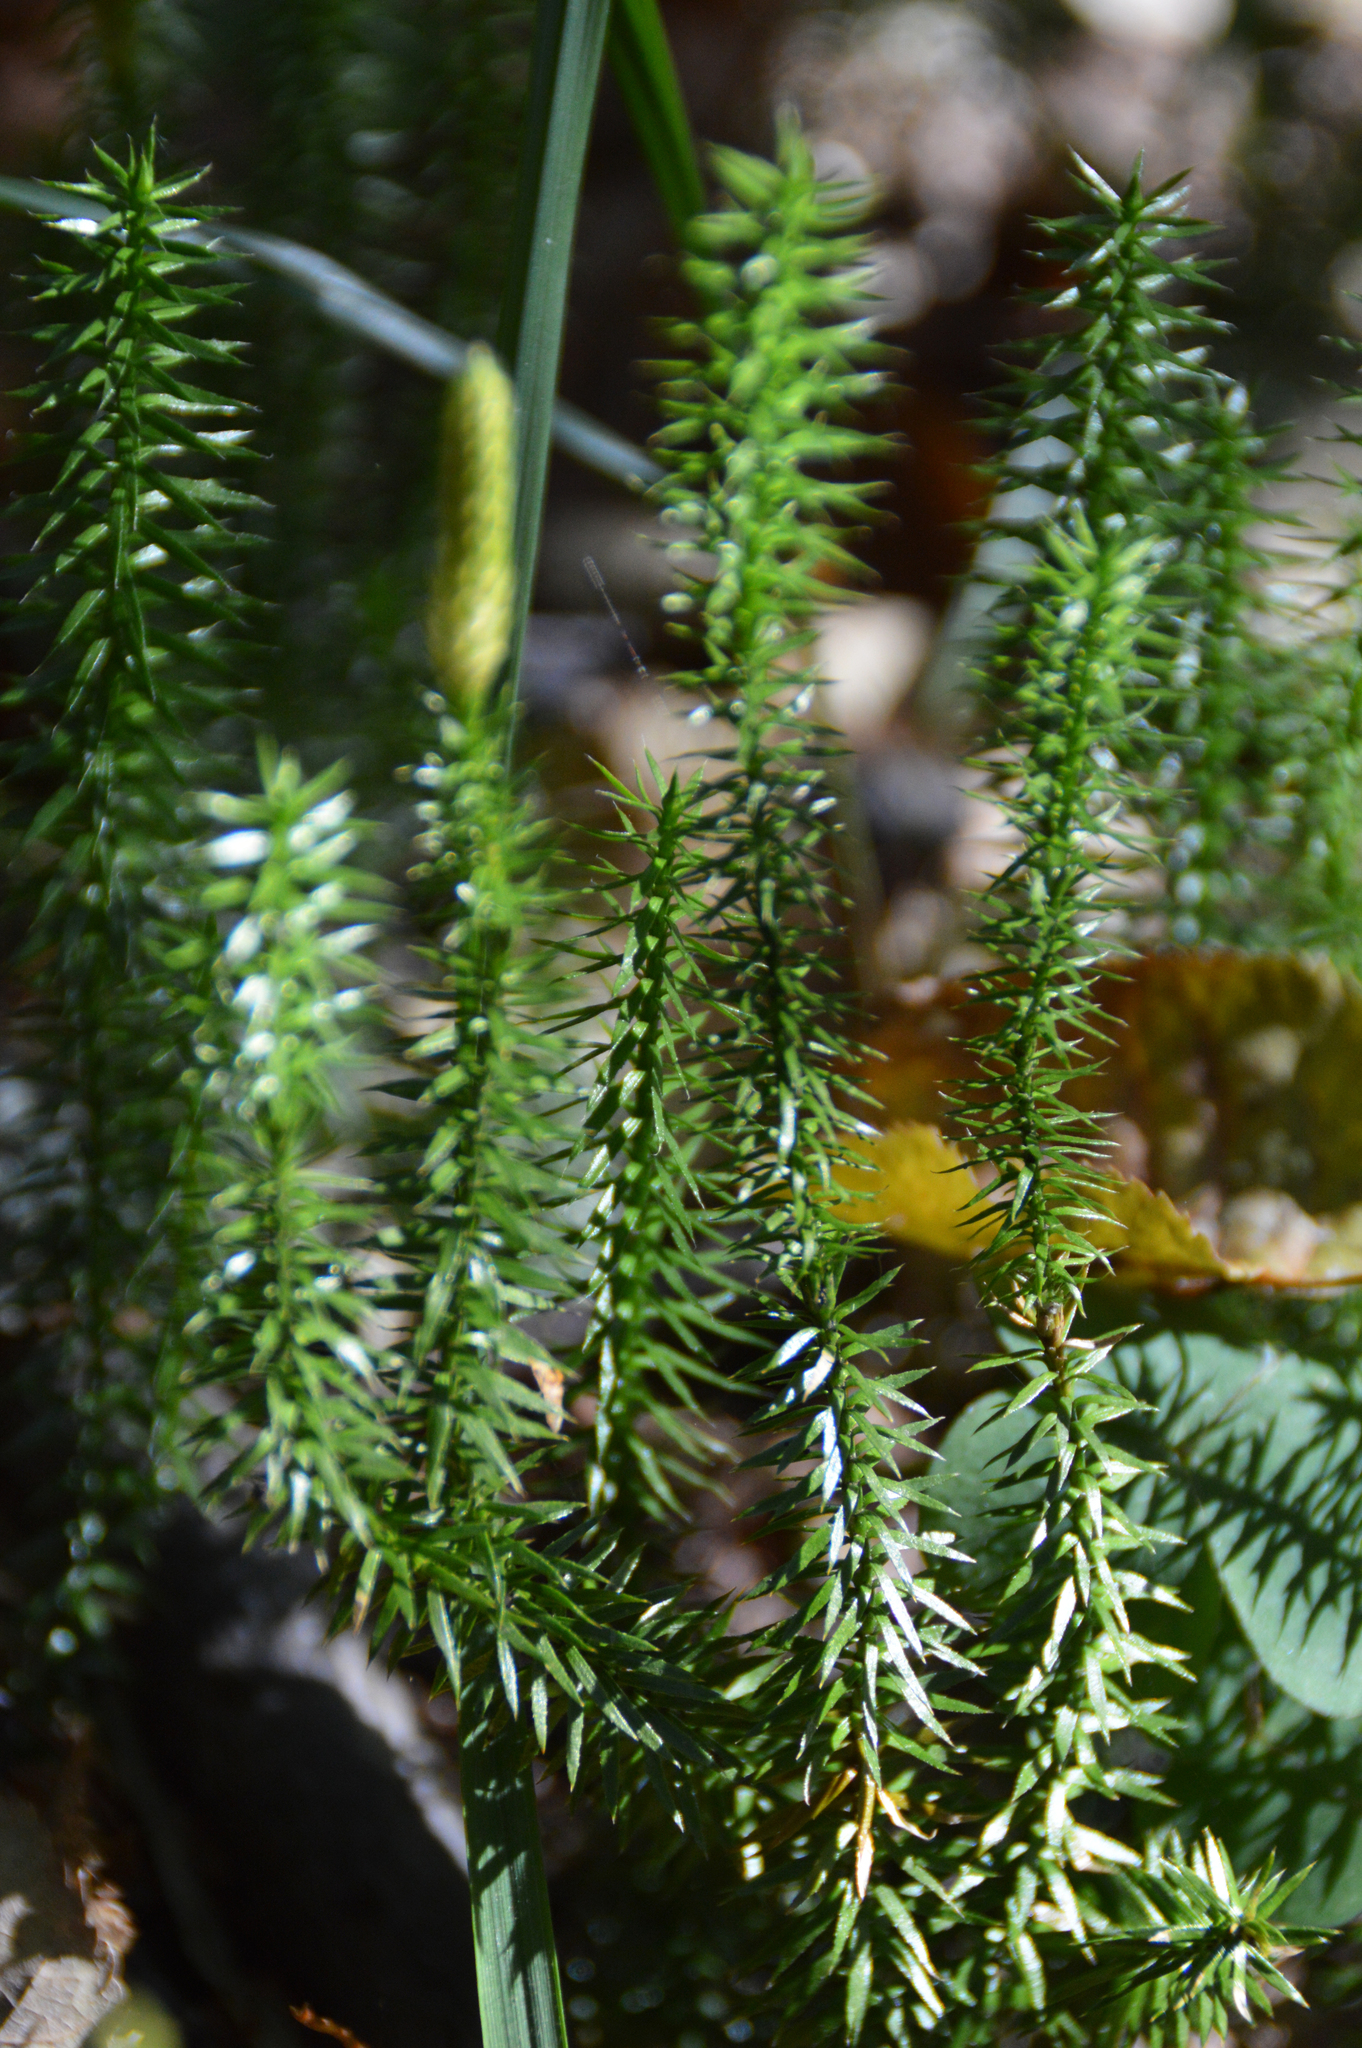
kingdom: Plantae
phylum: Tracheophyta
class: Lycopodiopsida
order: Lycopodiales
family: Lycopodiaceae
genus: Spinulum
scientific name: Spinulum annotinum
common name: Interrupted club-moss
